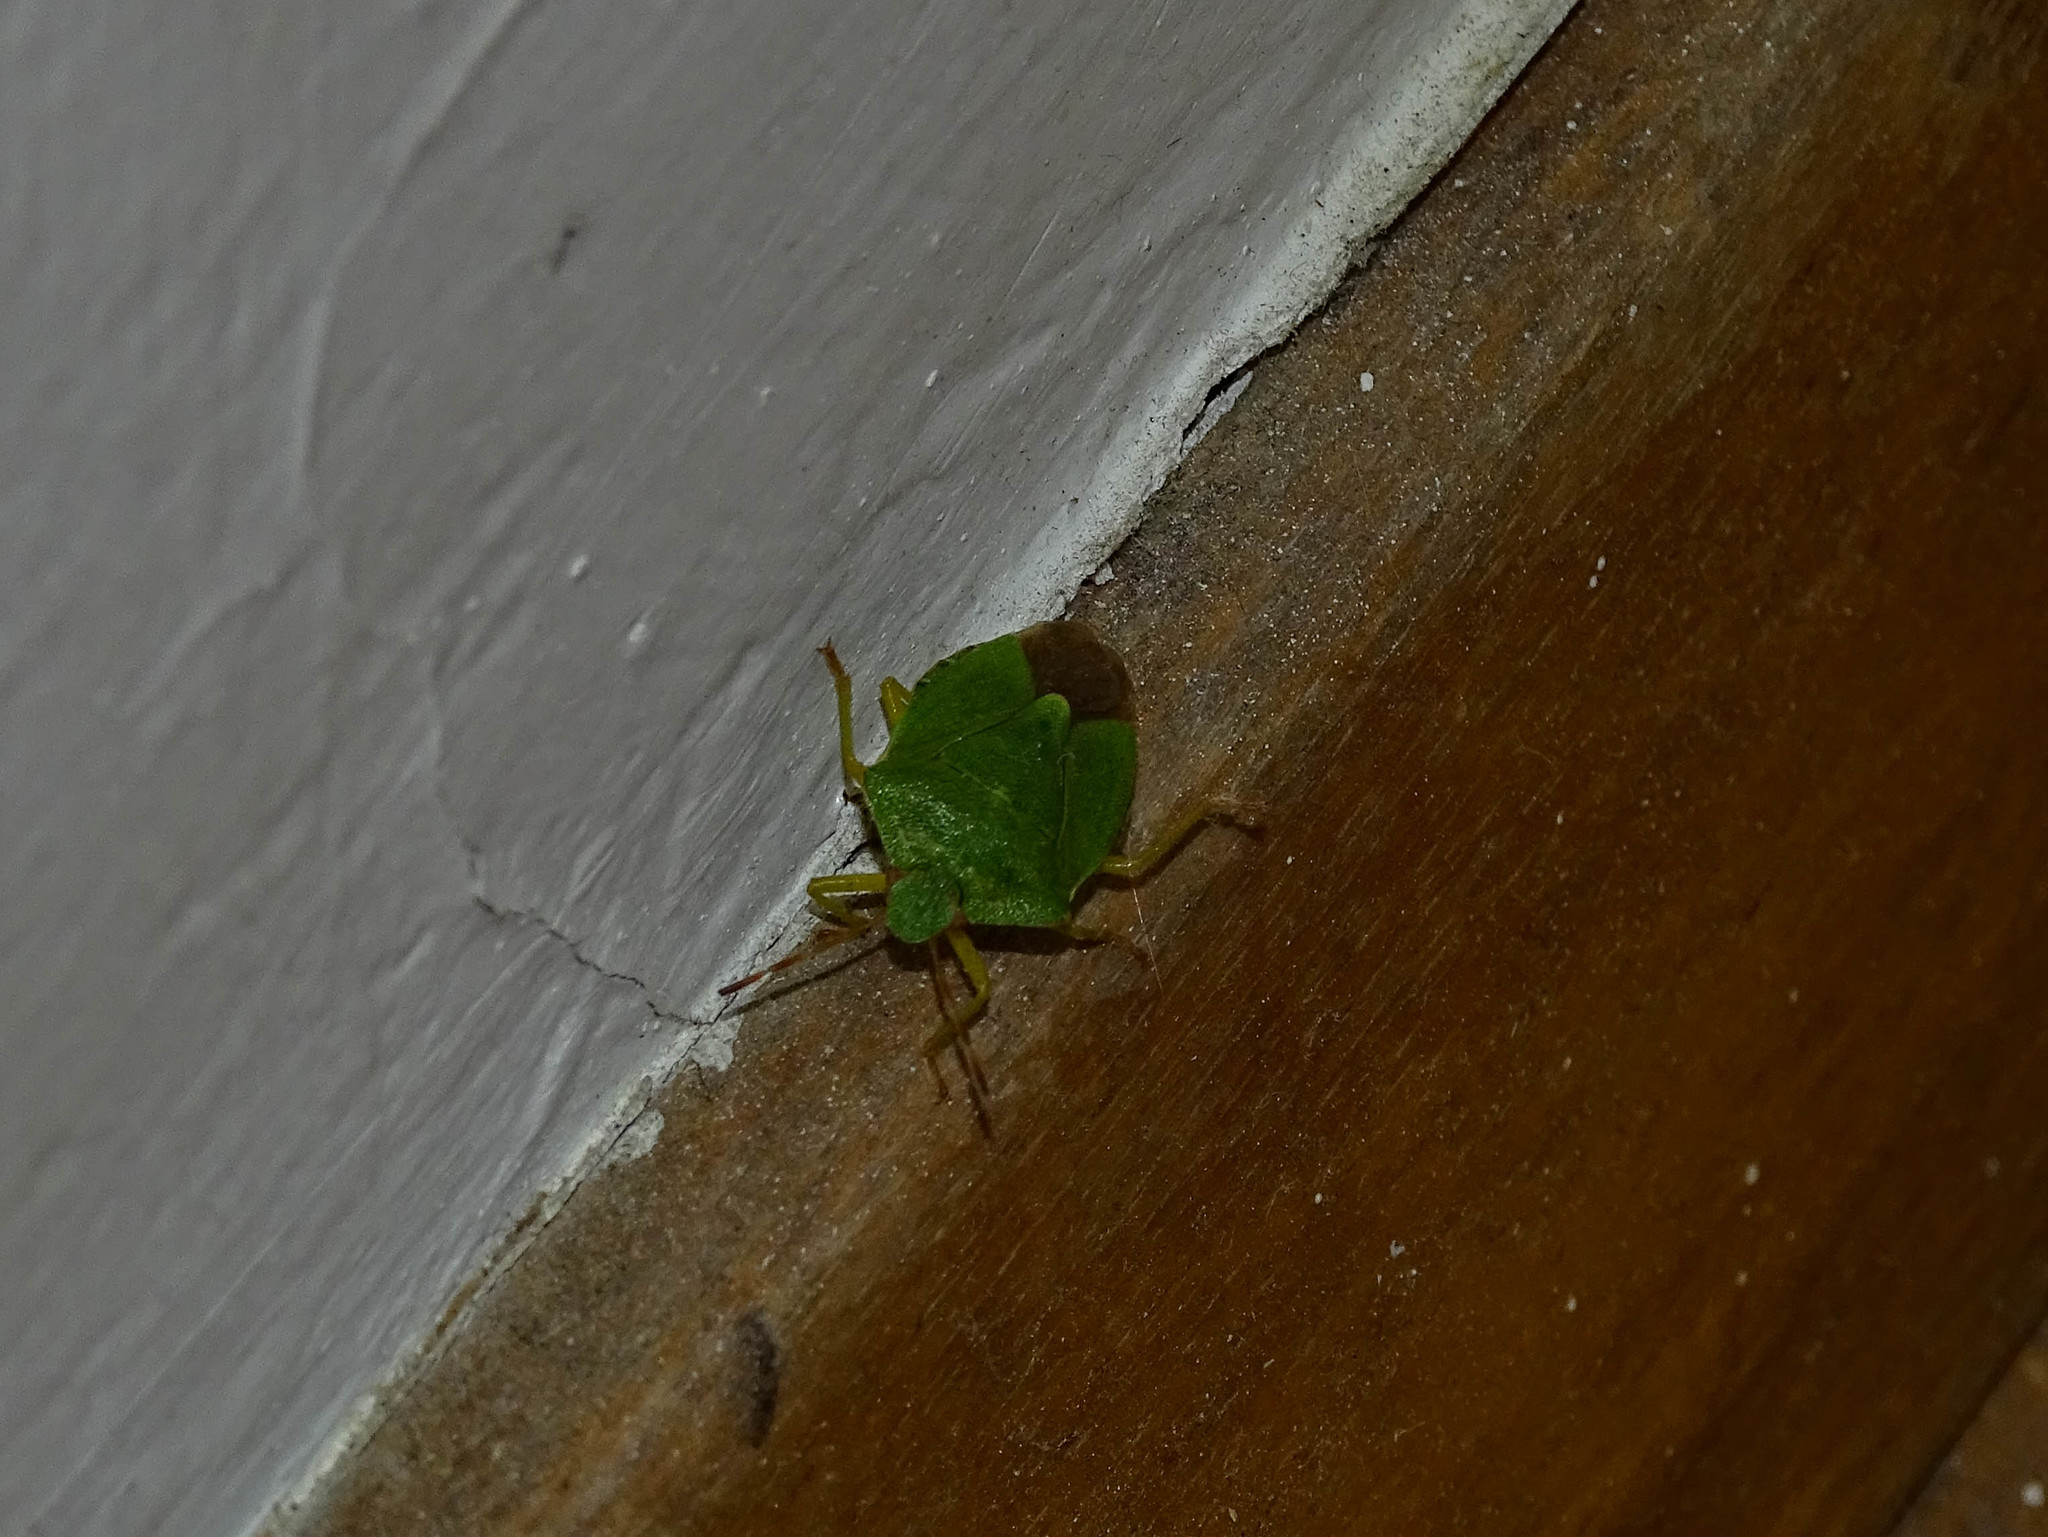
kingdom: Animalia
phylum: Arthropoda
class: Insecta
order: Hemiptera
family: Pentatomidae
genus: Palomena
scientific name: Palomena prasina
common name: Green shieldbug
